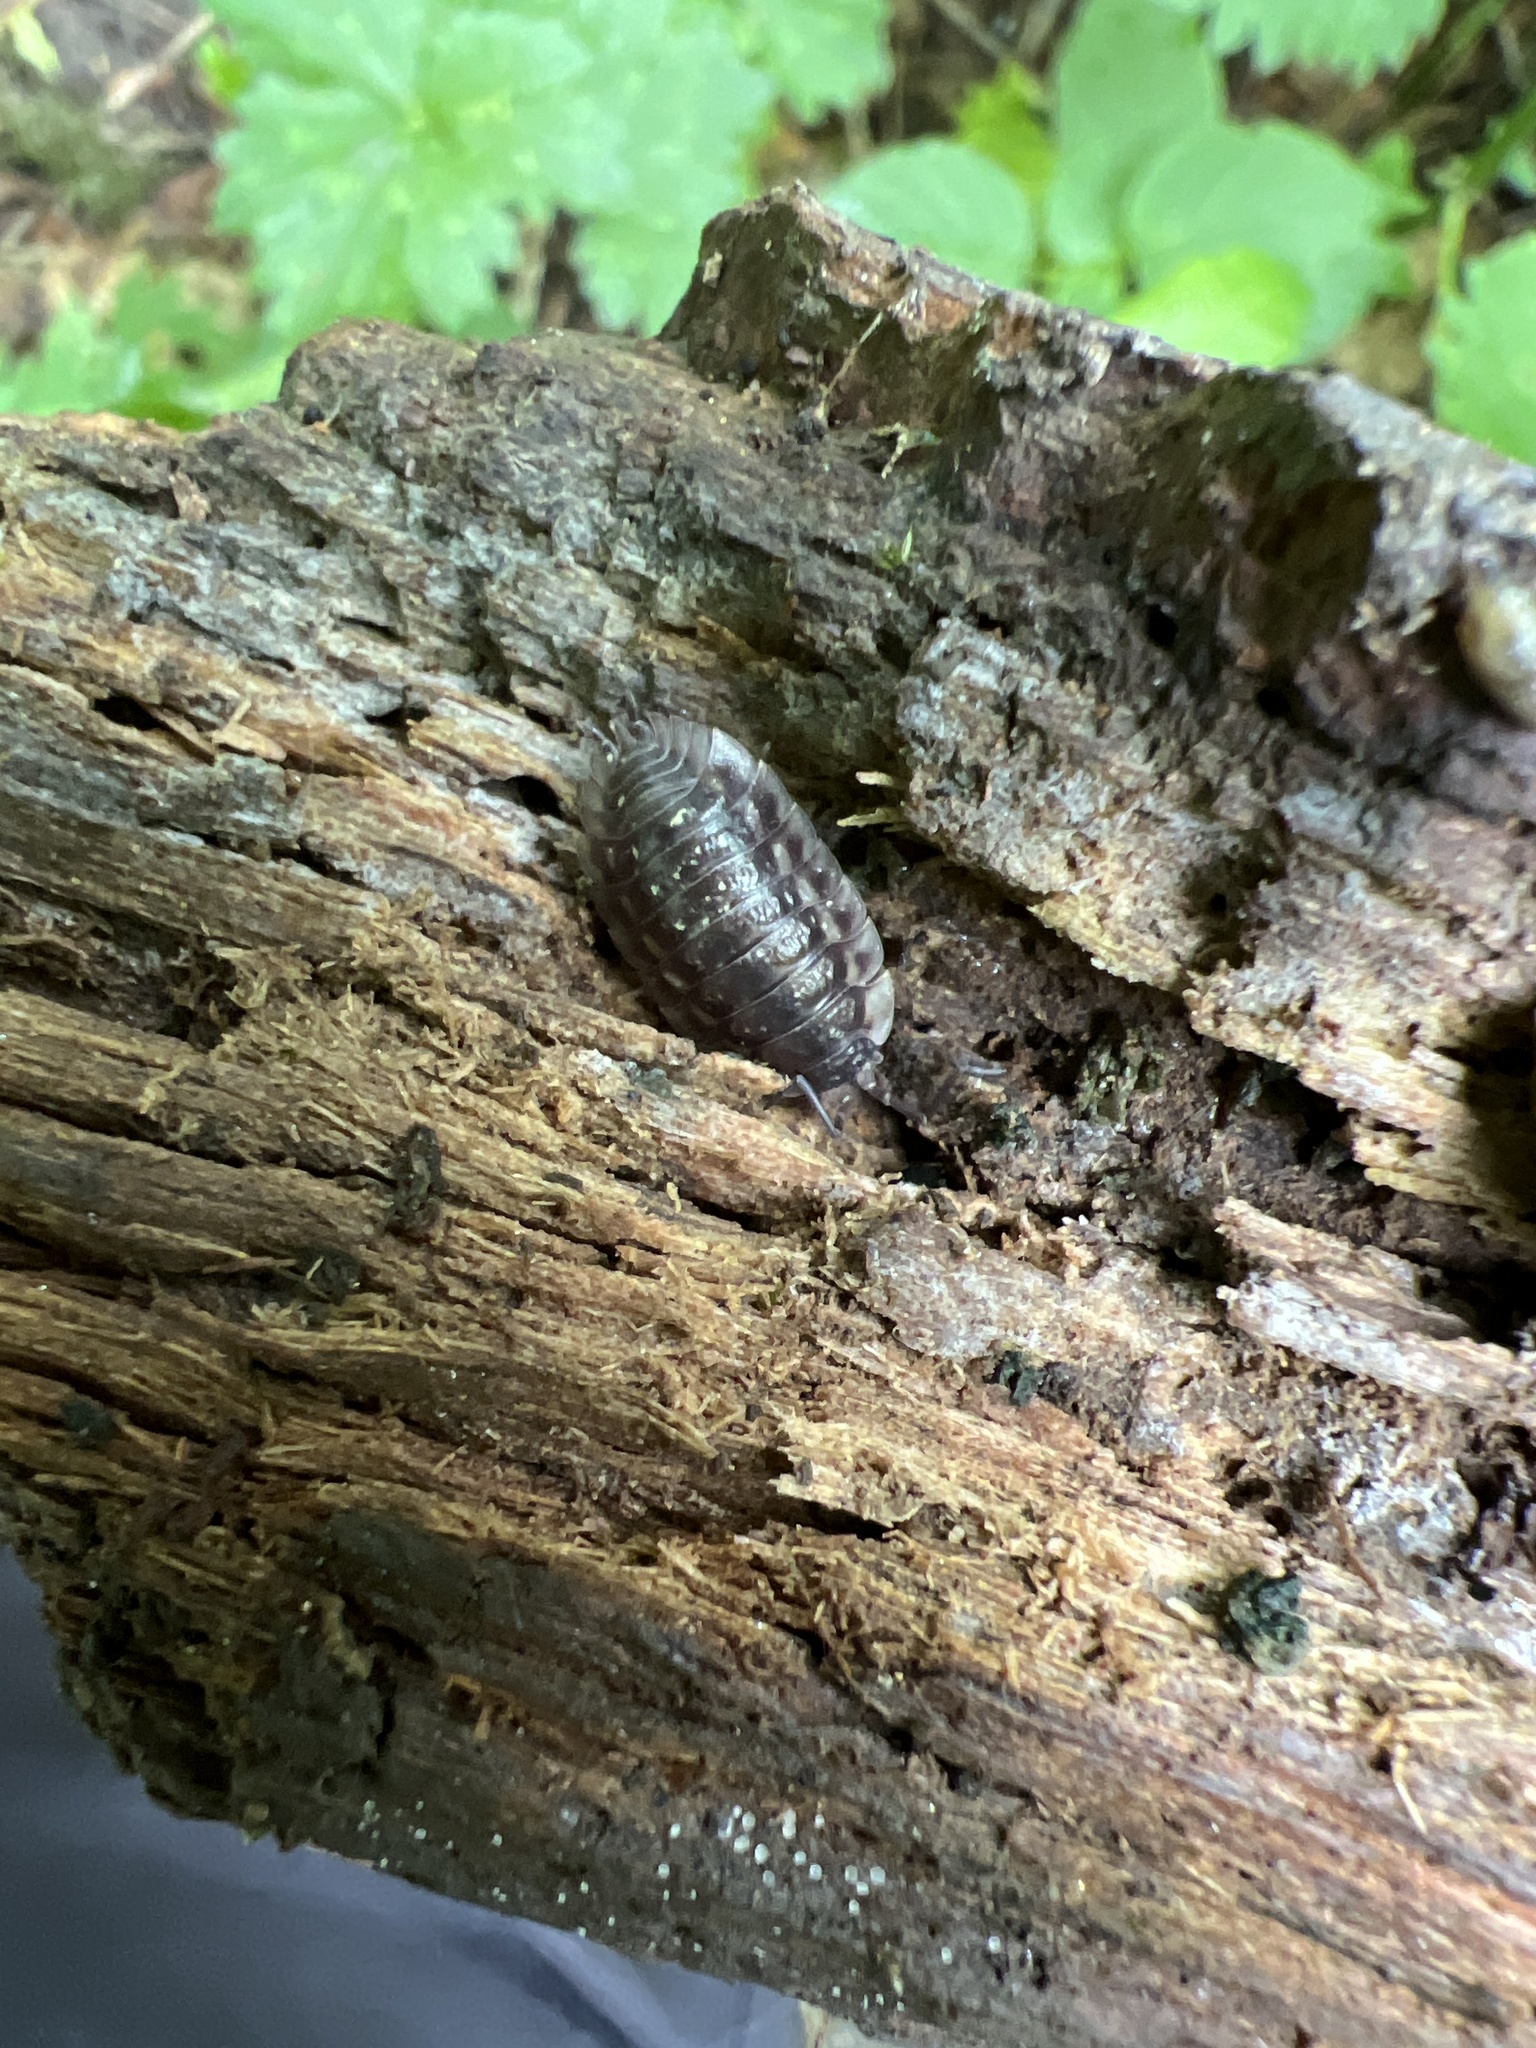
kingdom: Animalia
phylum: Arthropoda
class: Malacostraca
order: Isopoda
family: Oniscidae
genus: Oniscus
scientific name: Oniscus asellus
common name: Common shiny woodlouse
